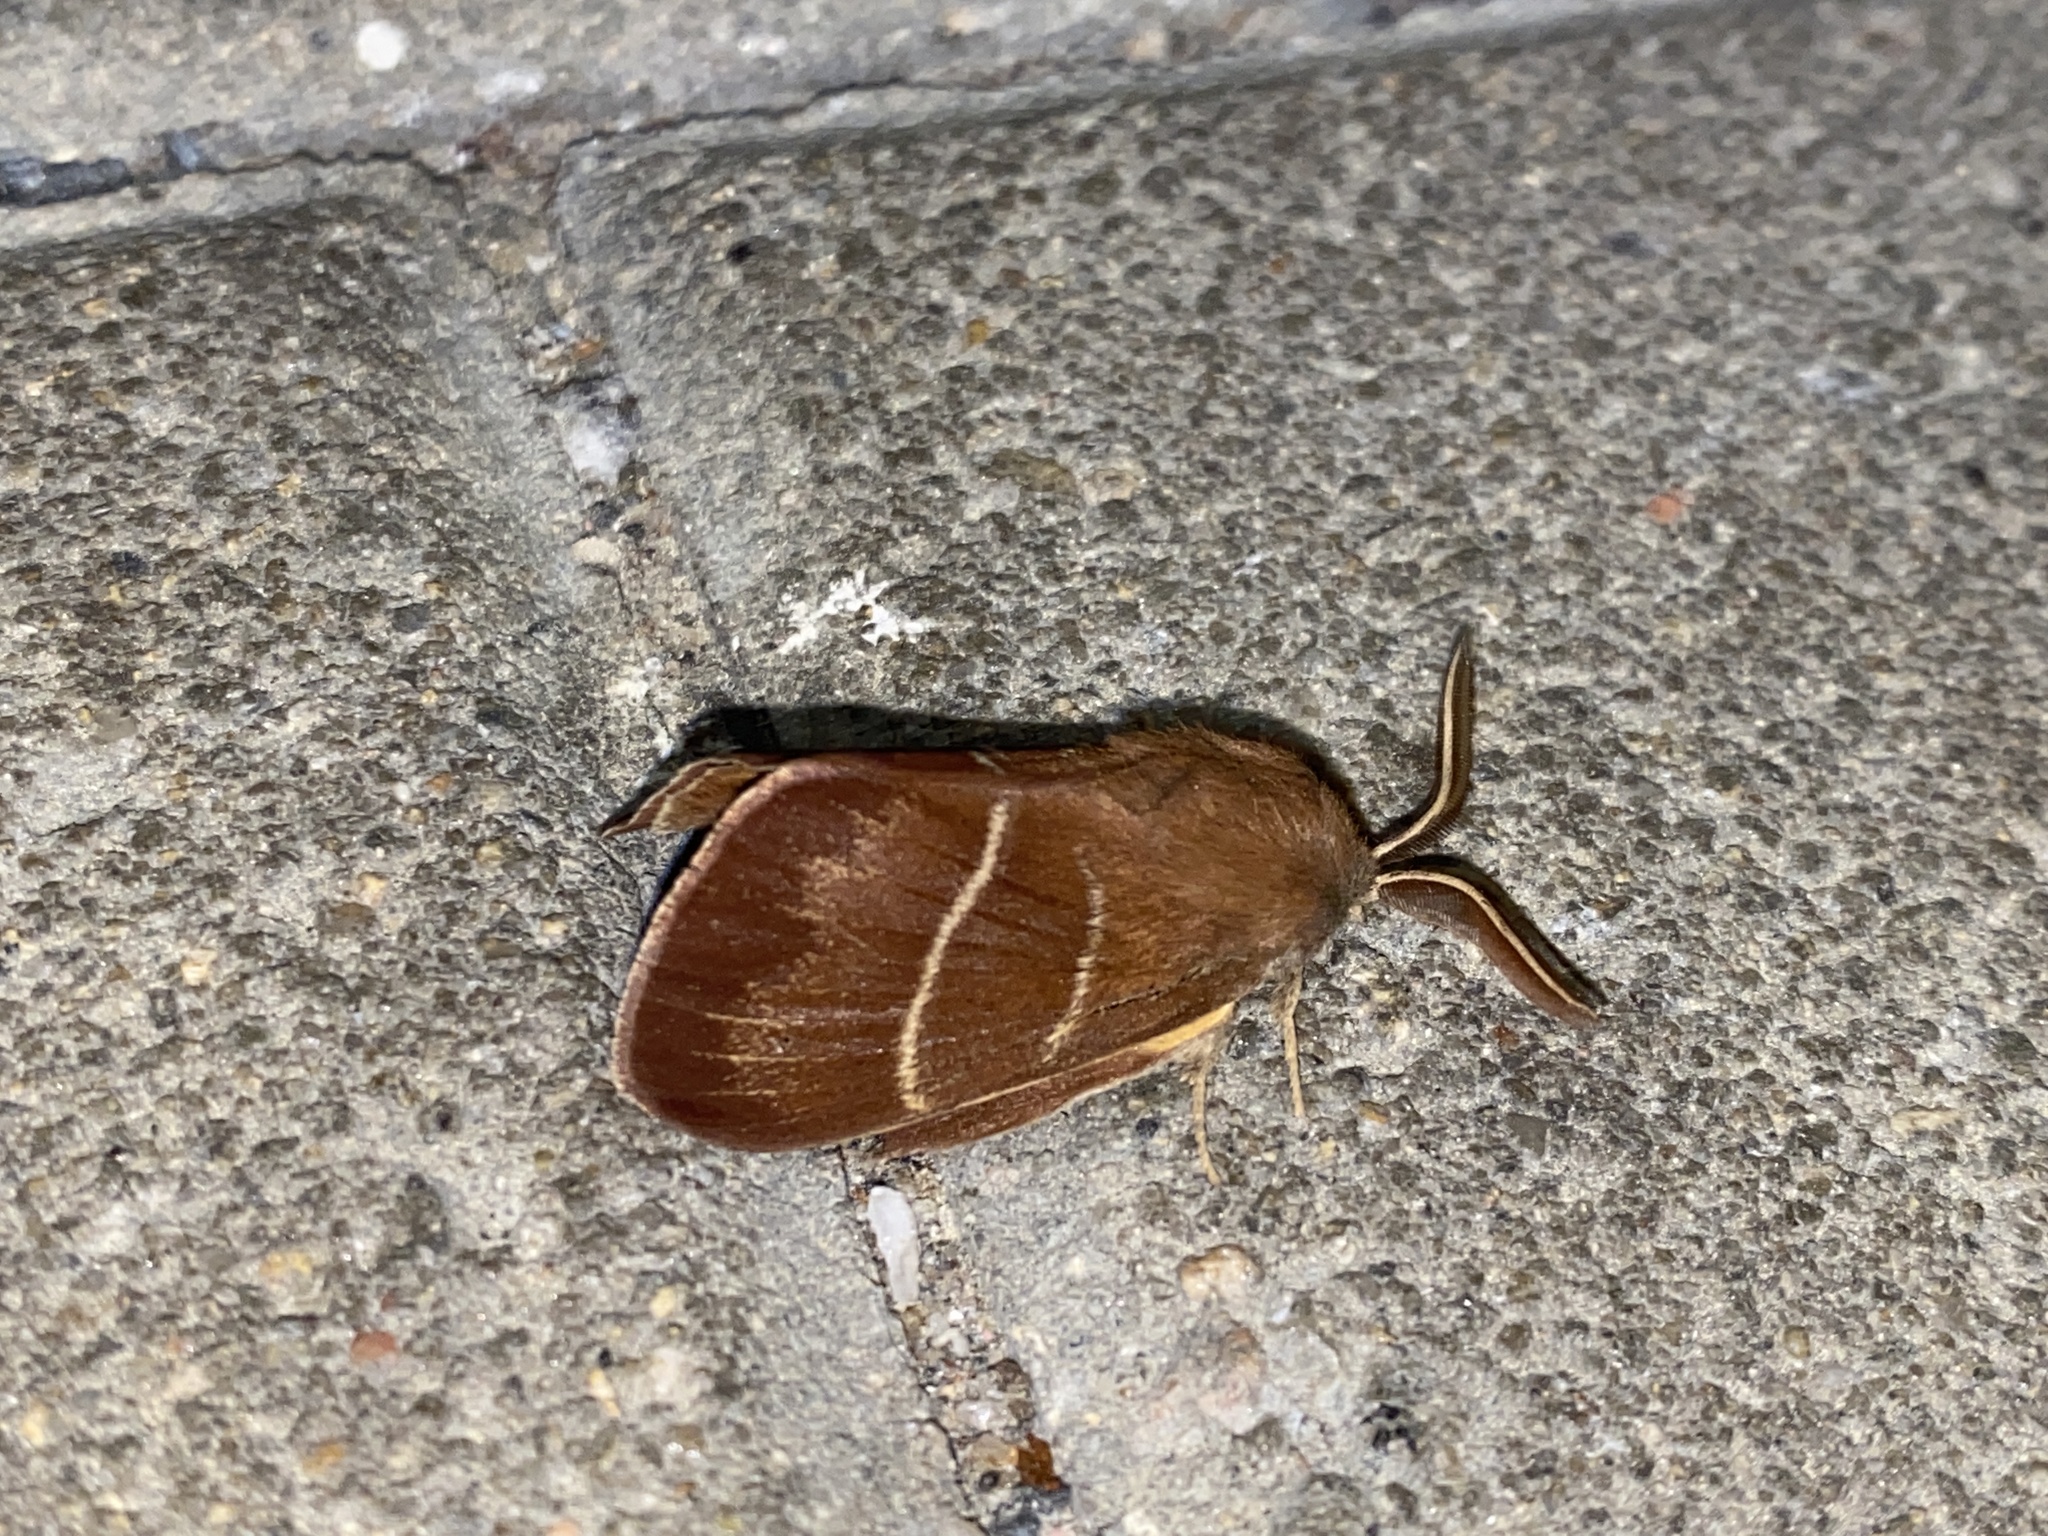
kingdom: Animalia
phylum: Arthropoda
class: Insecta
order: Lepidoptera
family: Lasiocampidae
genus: Macrothylacia
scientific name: Macrothylacia rubi
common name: Fox moth
